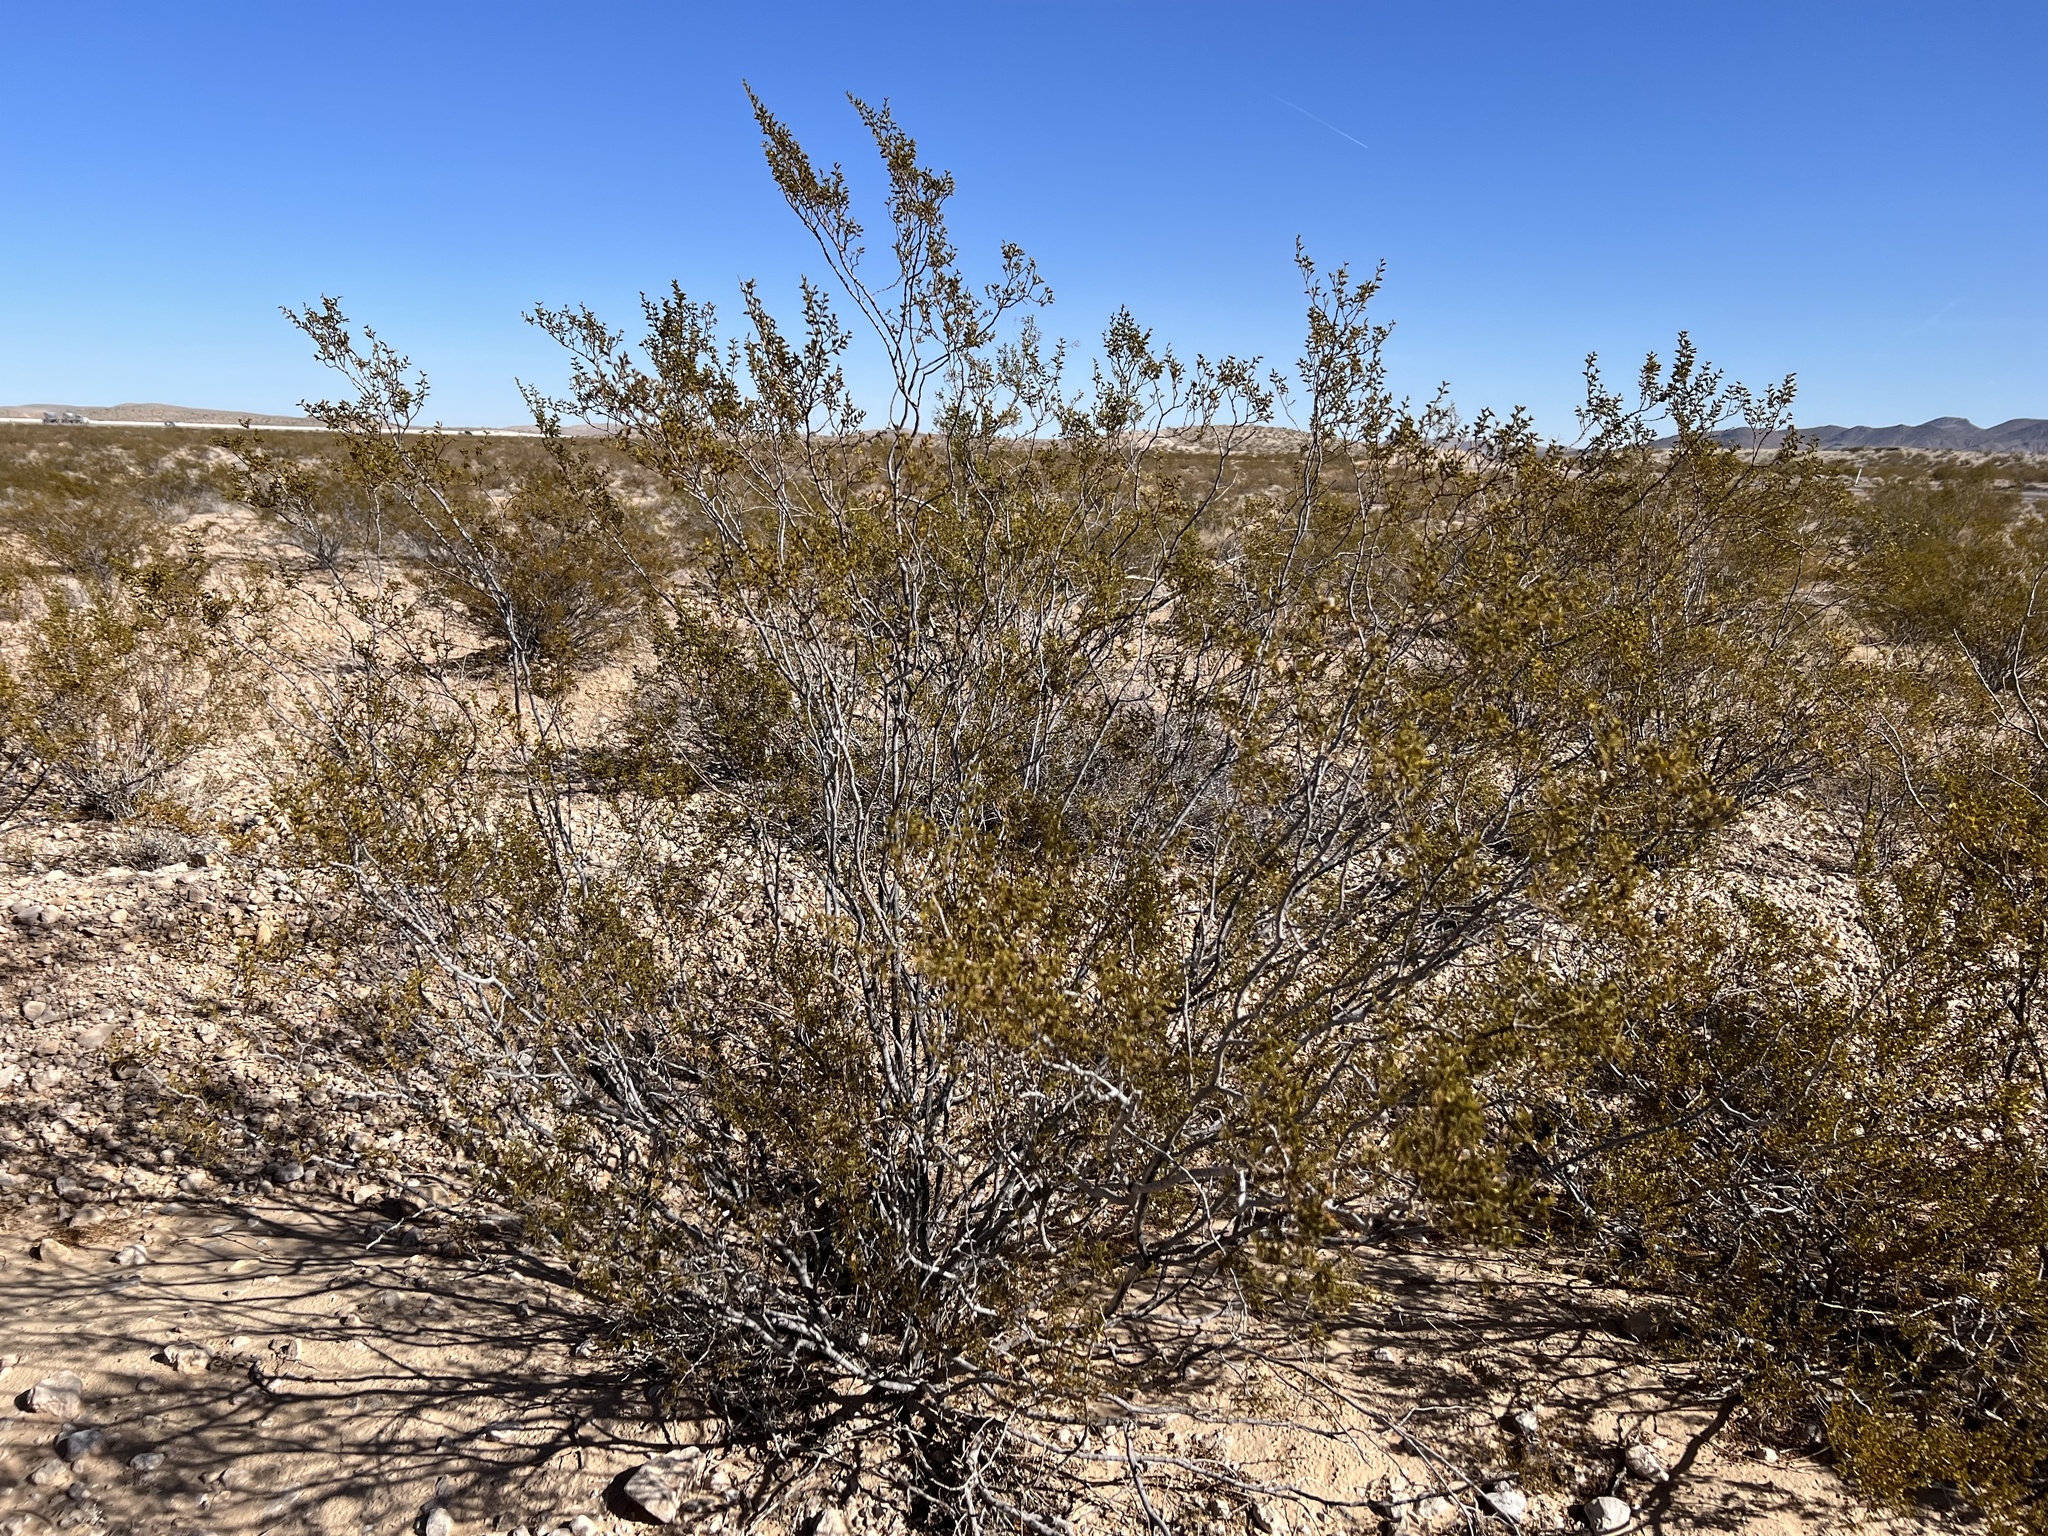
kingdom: Plantae
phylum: Tracheophyta
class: Magnoliopsida
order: Zygophyllales
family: Zygophyllaceae
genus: Larrea
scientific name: Larrea tridentata
